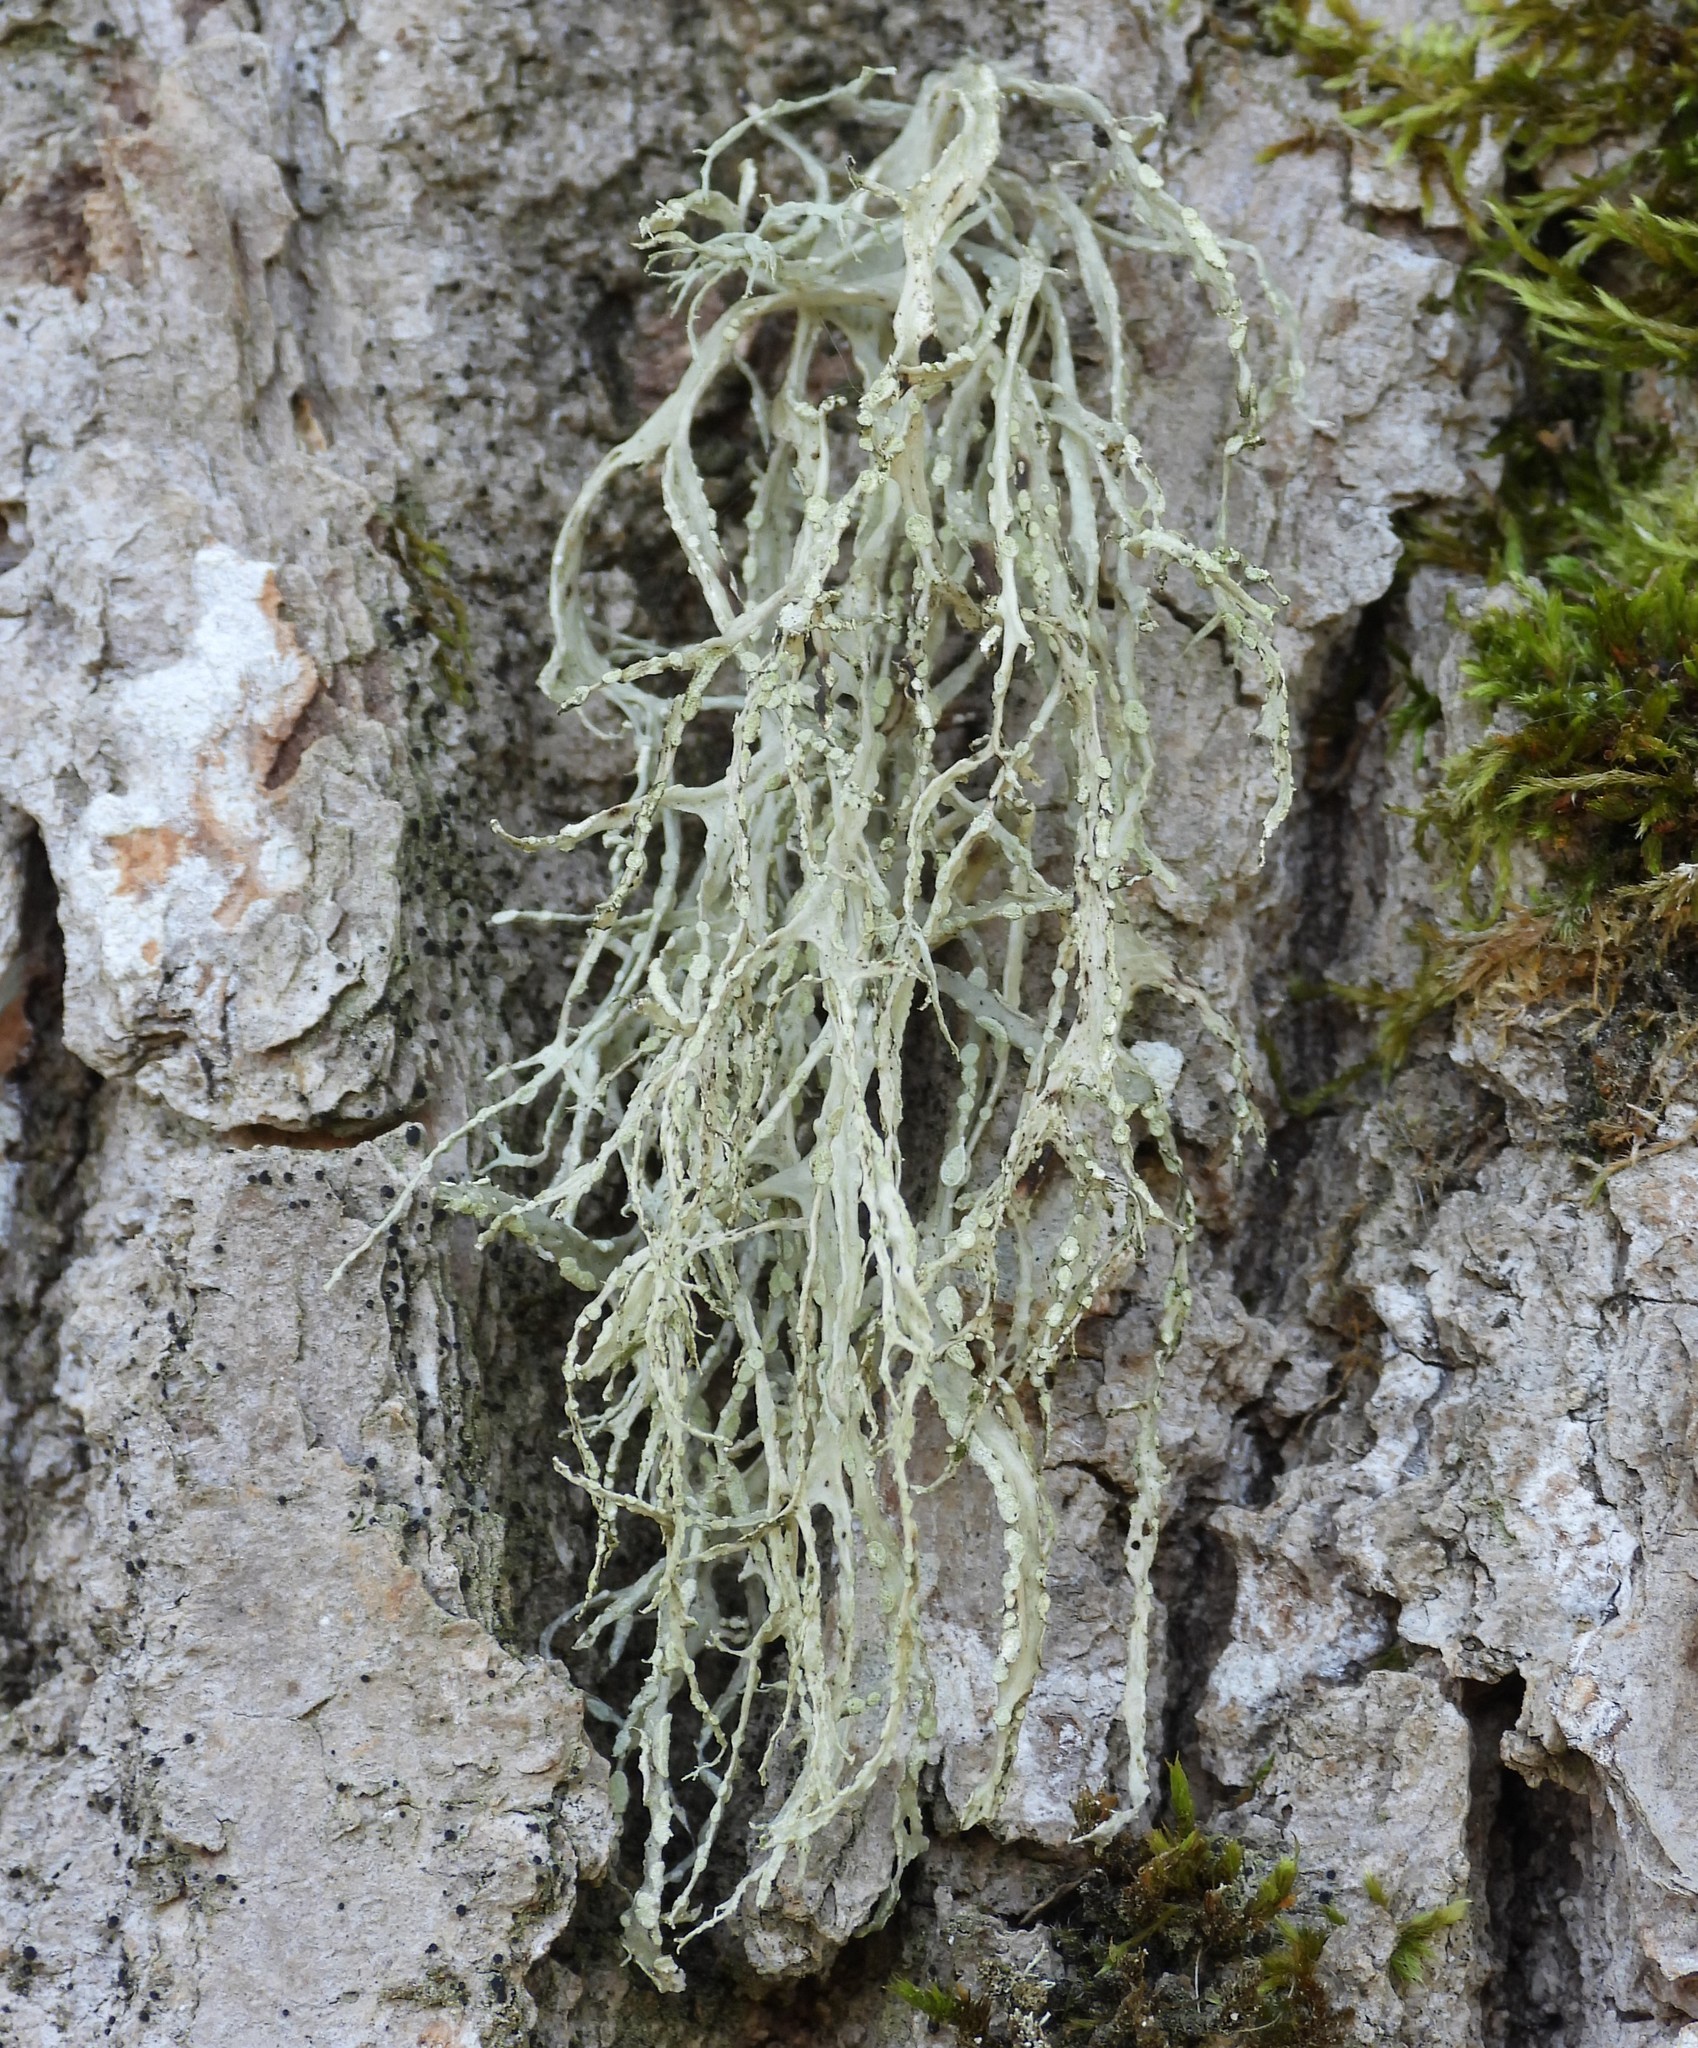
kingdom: Fungi
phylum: Ascomycota
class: Lecanoromycetes
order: Lecanorales
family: Ramalinaceae
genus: Ramalina
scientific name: Ramalina farinacea
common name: Farinose cartilage lichen
